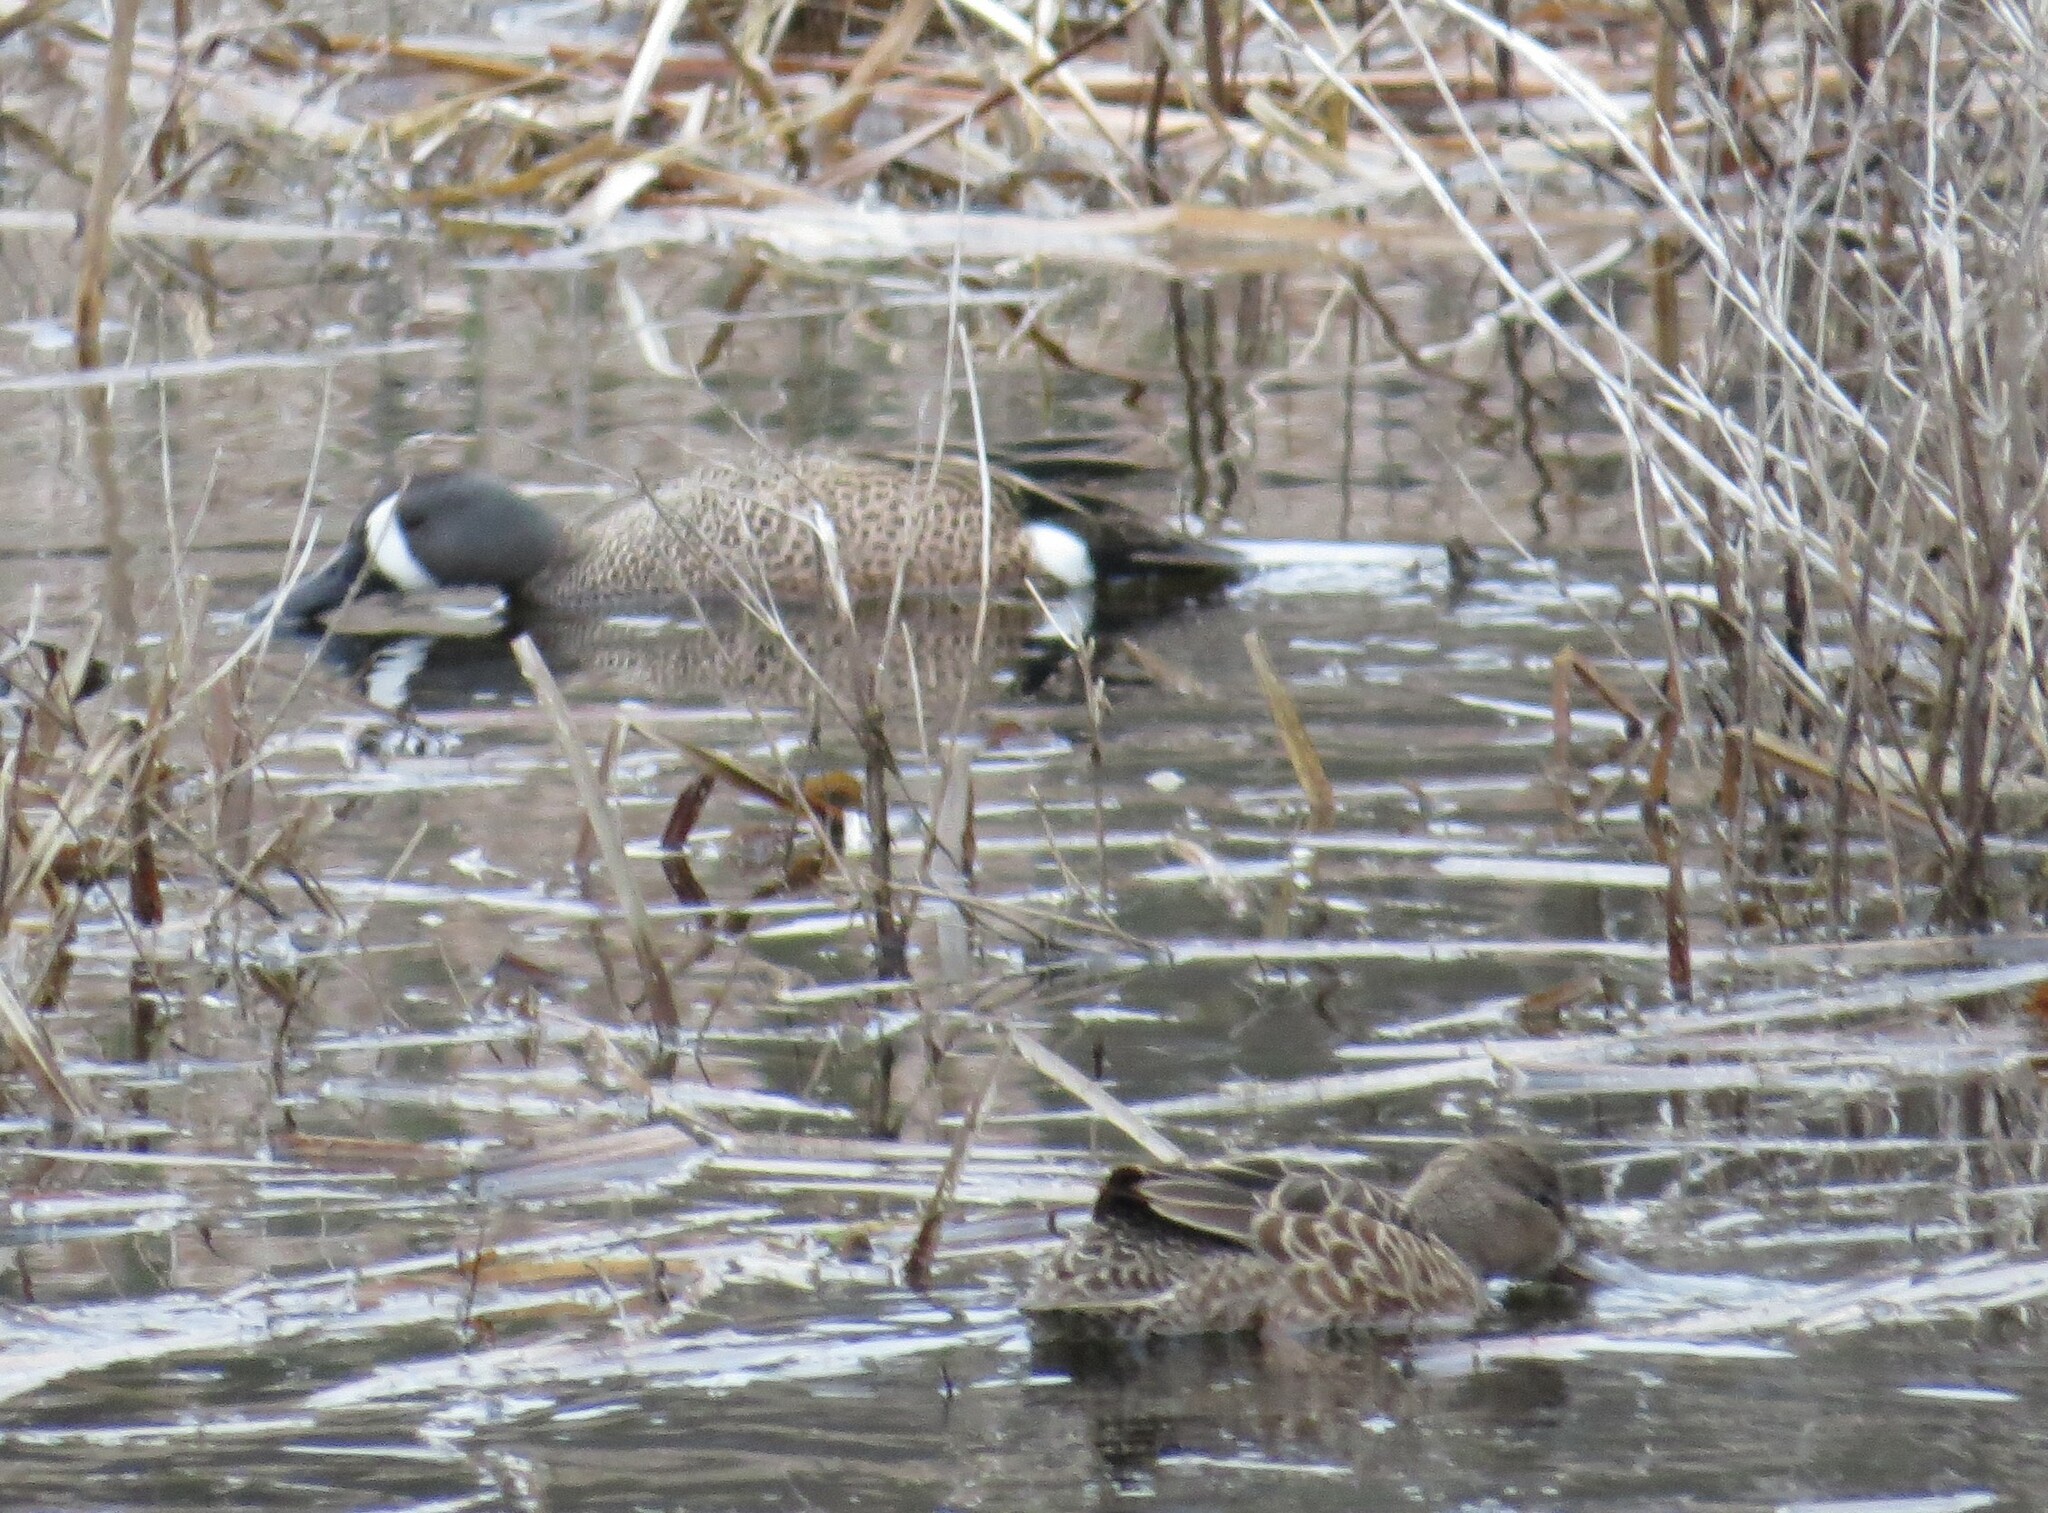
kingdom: Animalia
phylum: Chordata
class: Aves
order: Anseriformes
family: Anatidae
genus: Spatula
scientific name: Spatula discors
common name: Blue-winged teal
